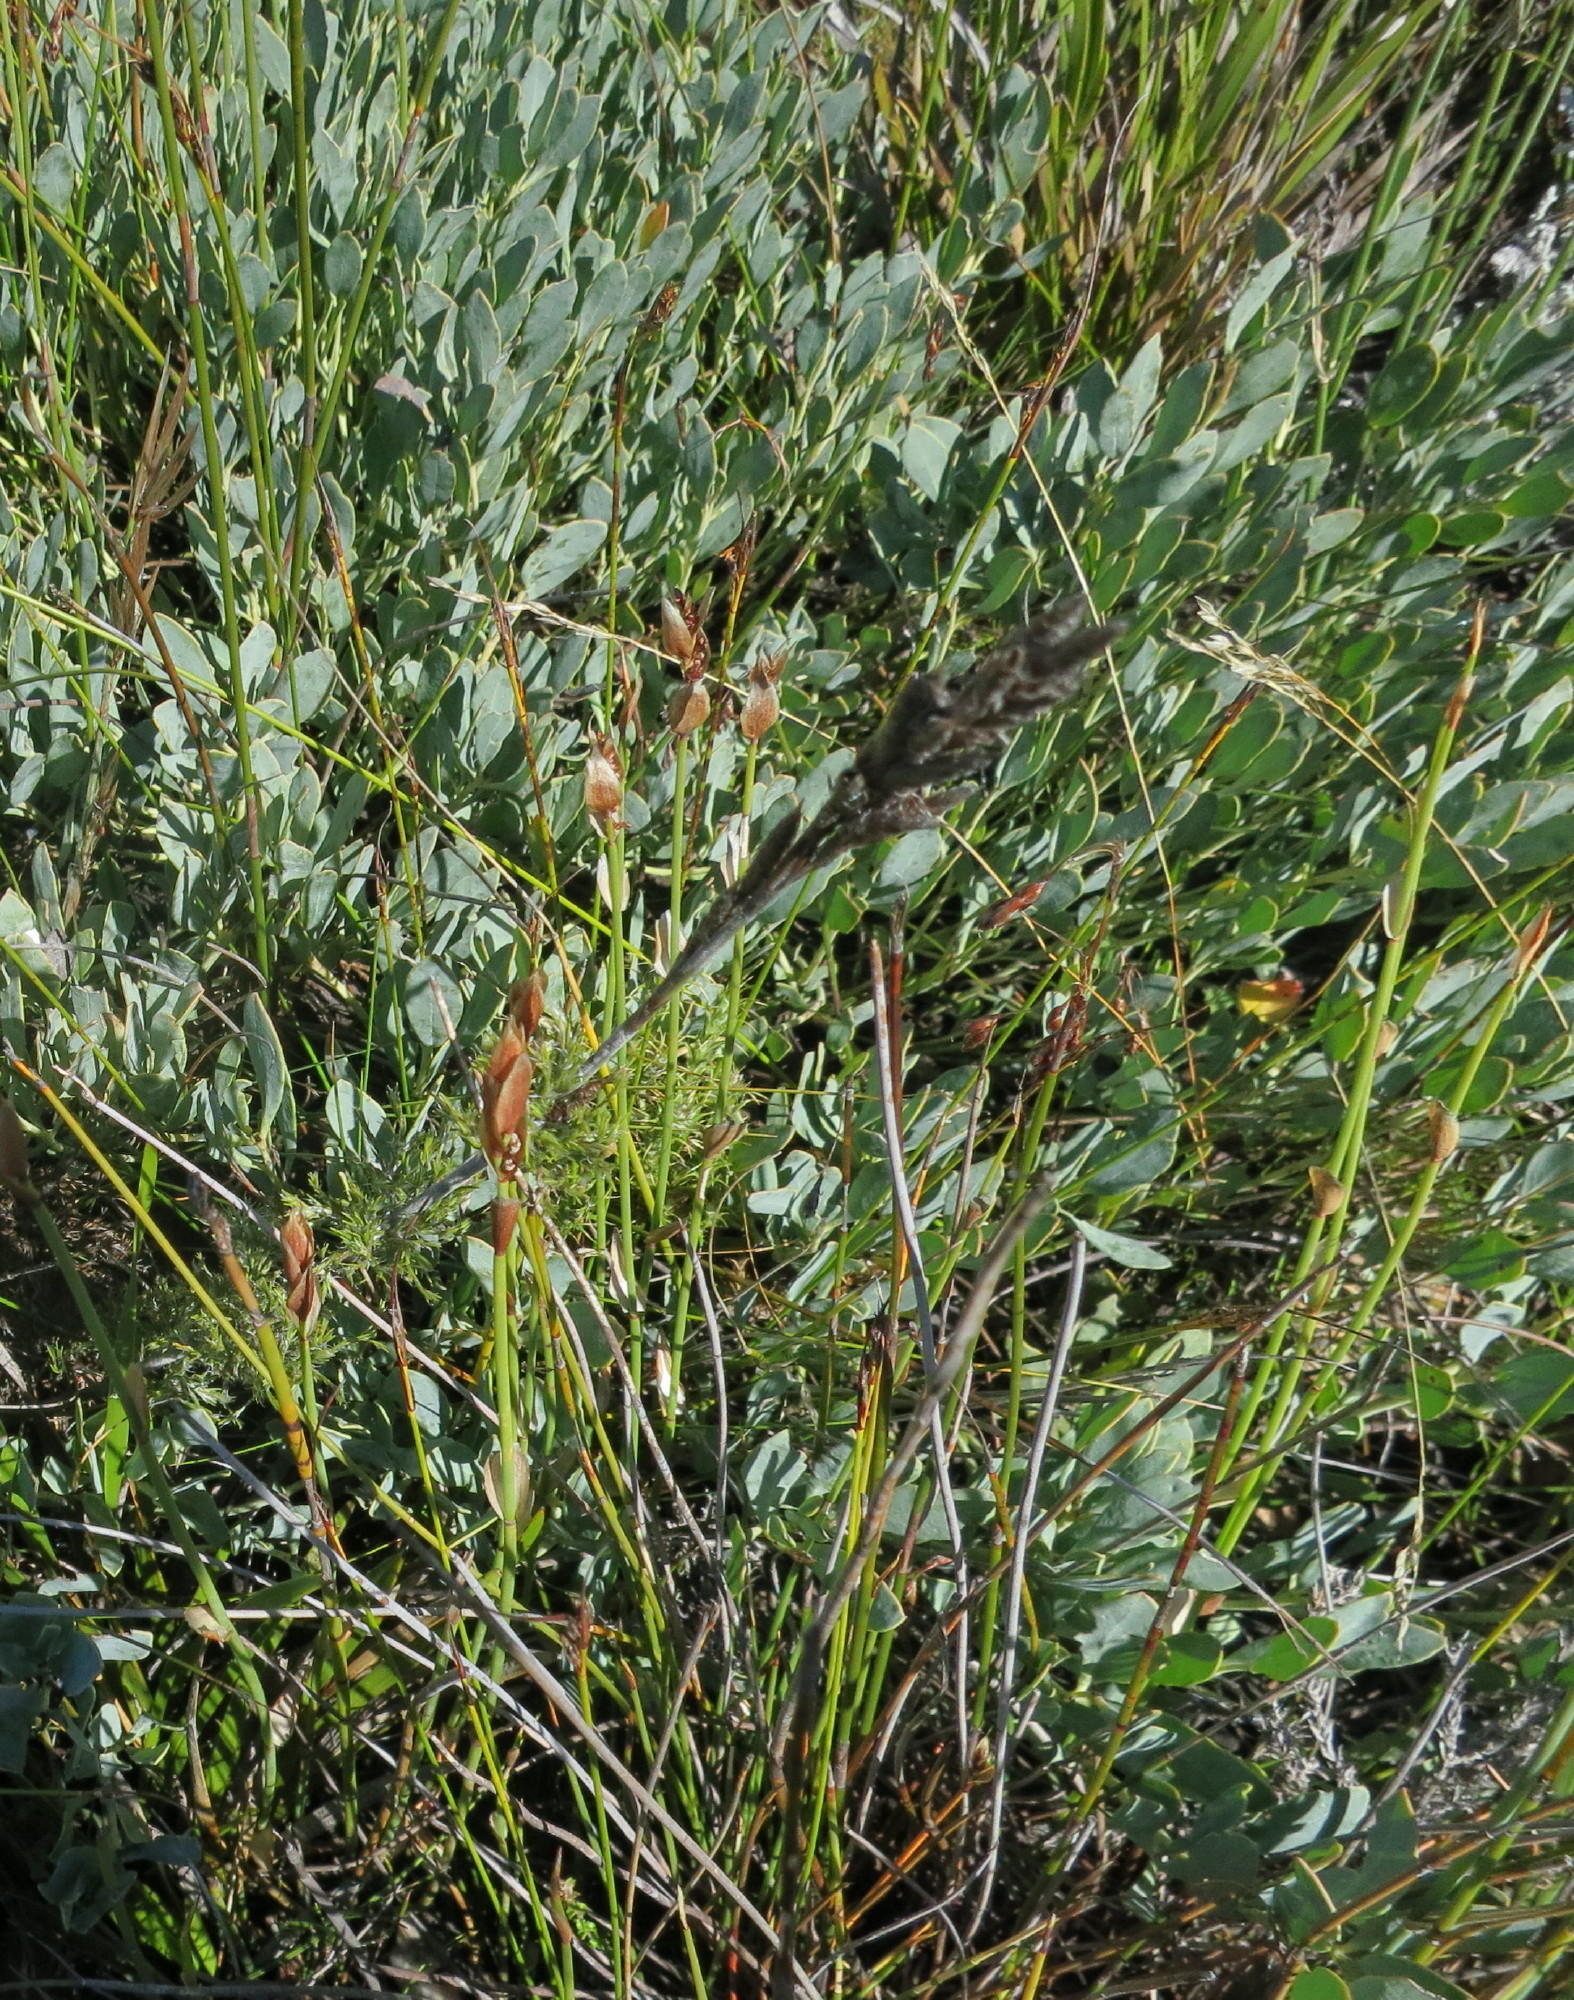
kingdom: Plantae
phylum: Tracheophyta
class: Magnoliopsida
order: Fabales
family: Fabaceae
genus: Rafnia
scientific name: Rafnia rostrata
